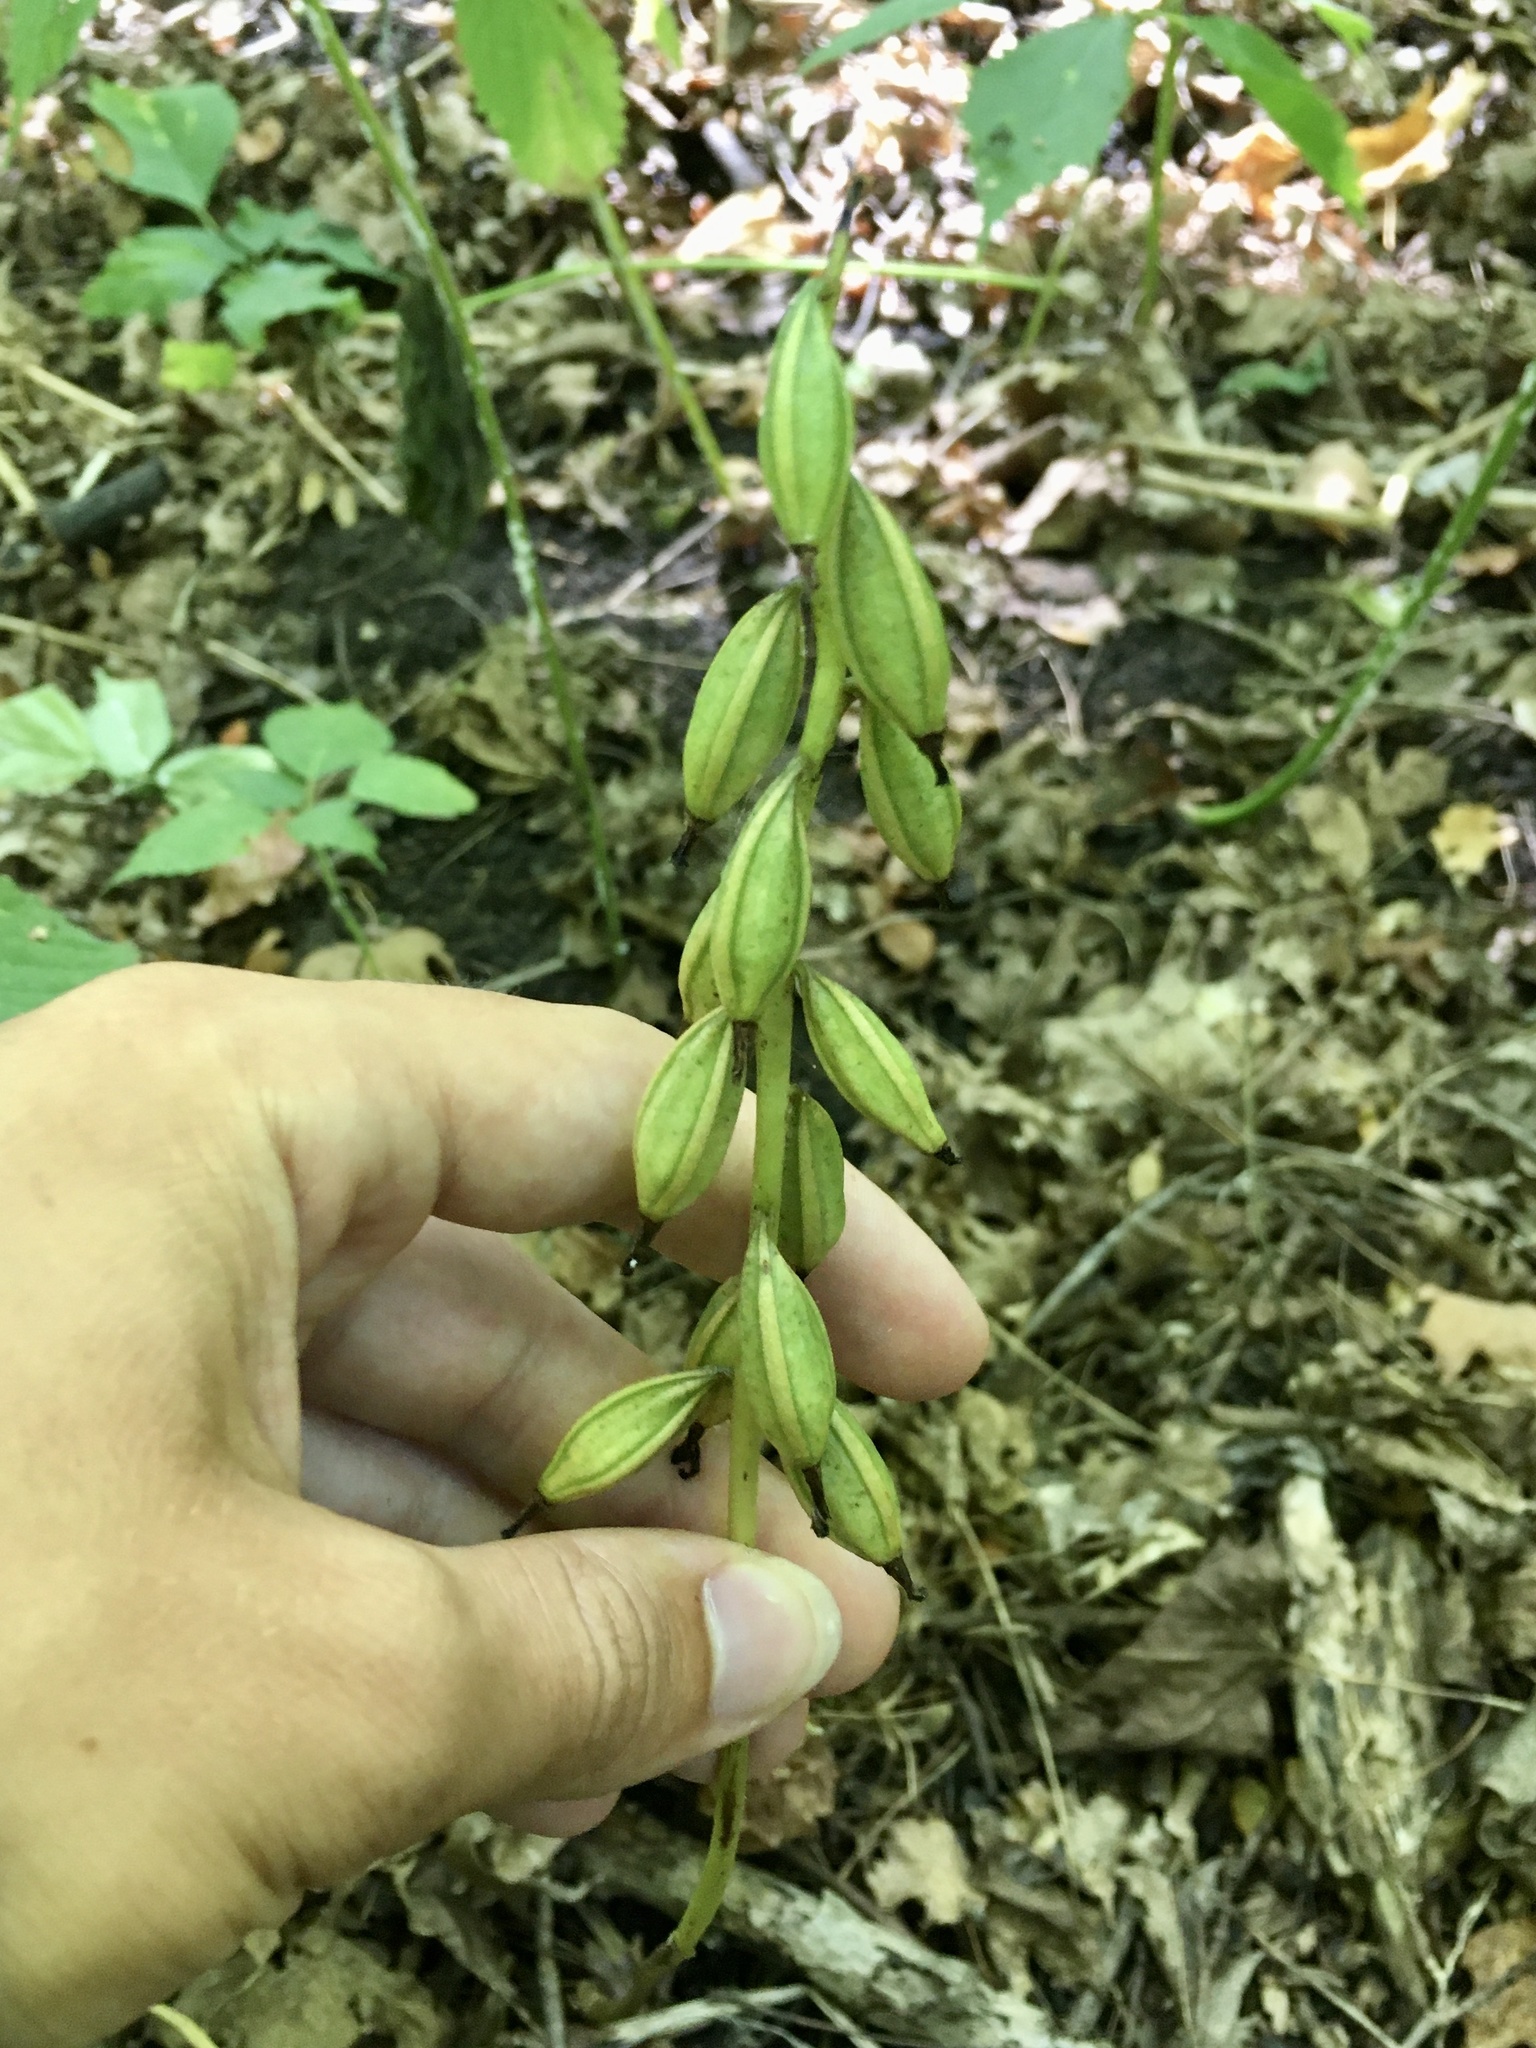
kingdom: Plantae
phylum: Tracheophyta
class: Liliopsida
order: Asparagales
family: Orchidaceae
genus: Aplectrum
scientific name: Aplectrum hyemale
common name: Adam-and-eve
